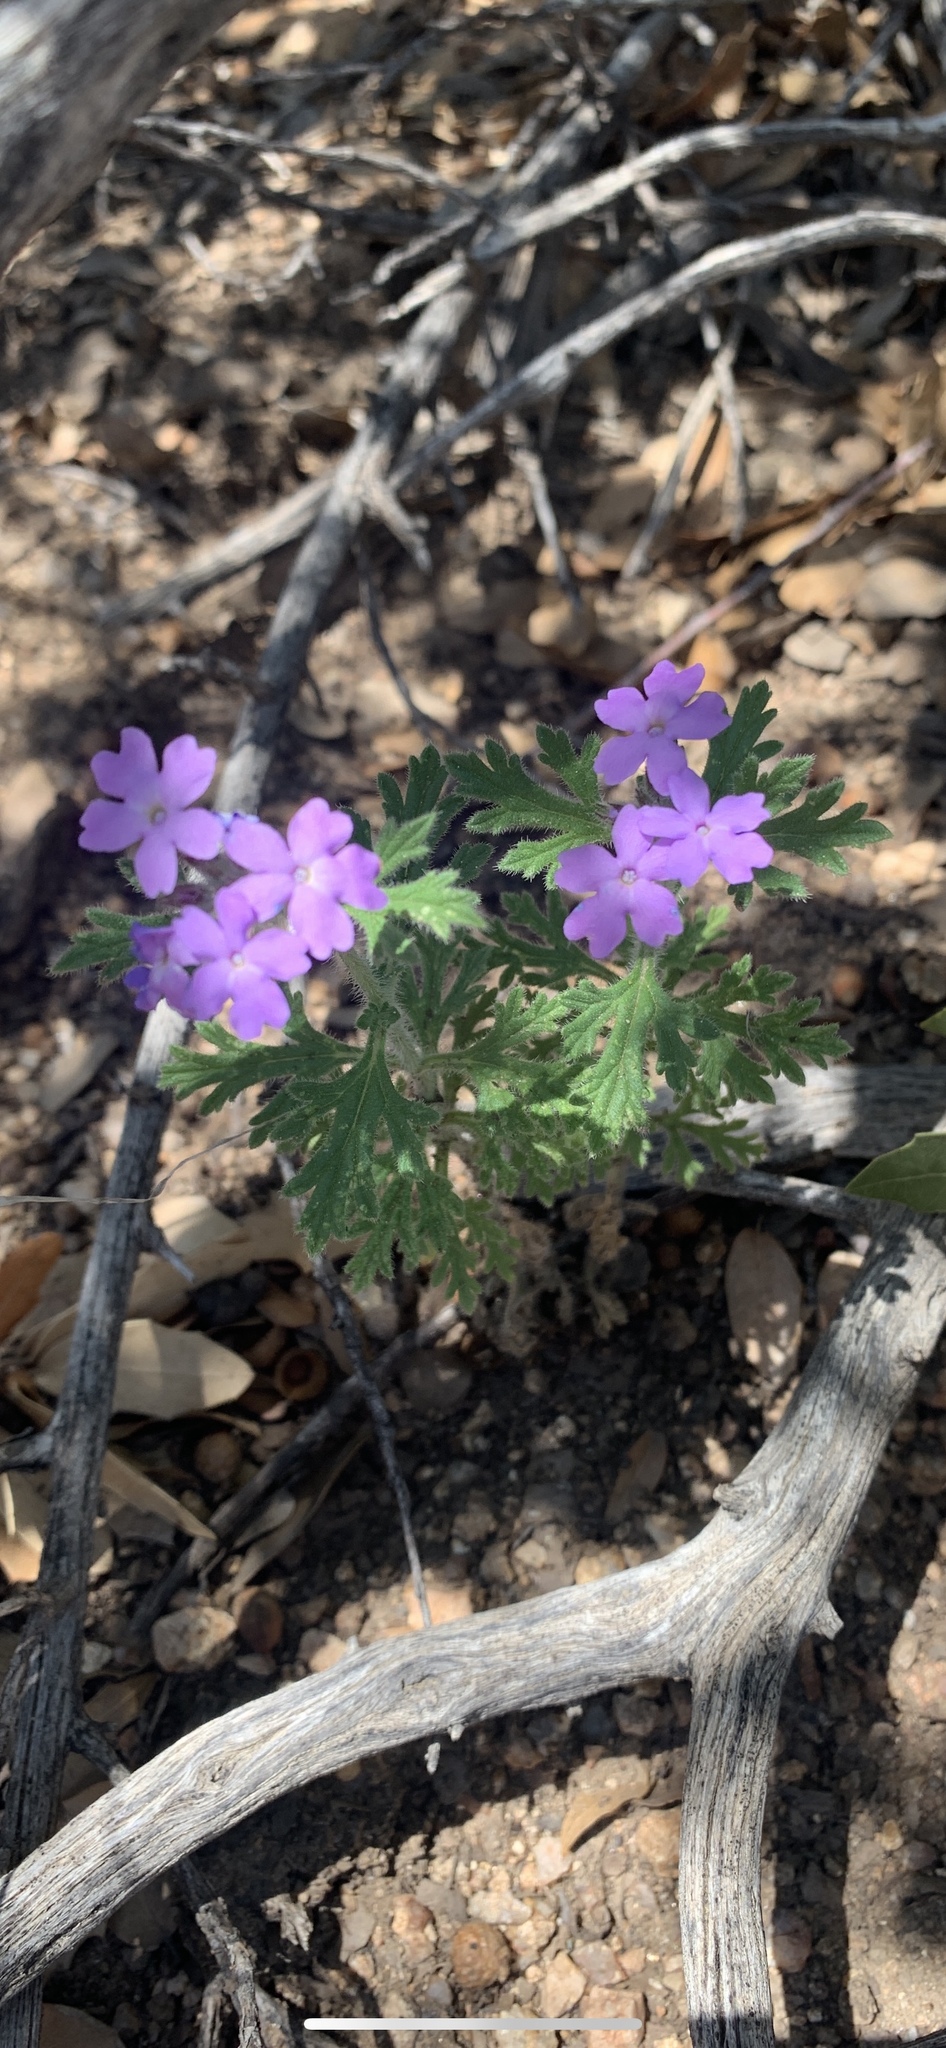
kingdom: Plantae
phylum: Tracheophyta
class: Magnoliopsida
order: Lamiales
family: Verbenaceae
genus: Verbena
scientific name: Verbena chiricahensis
